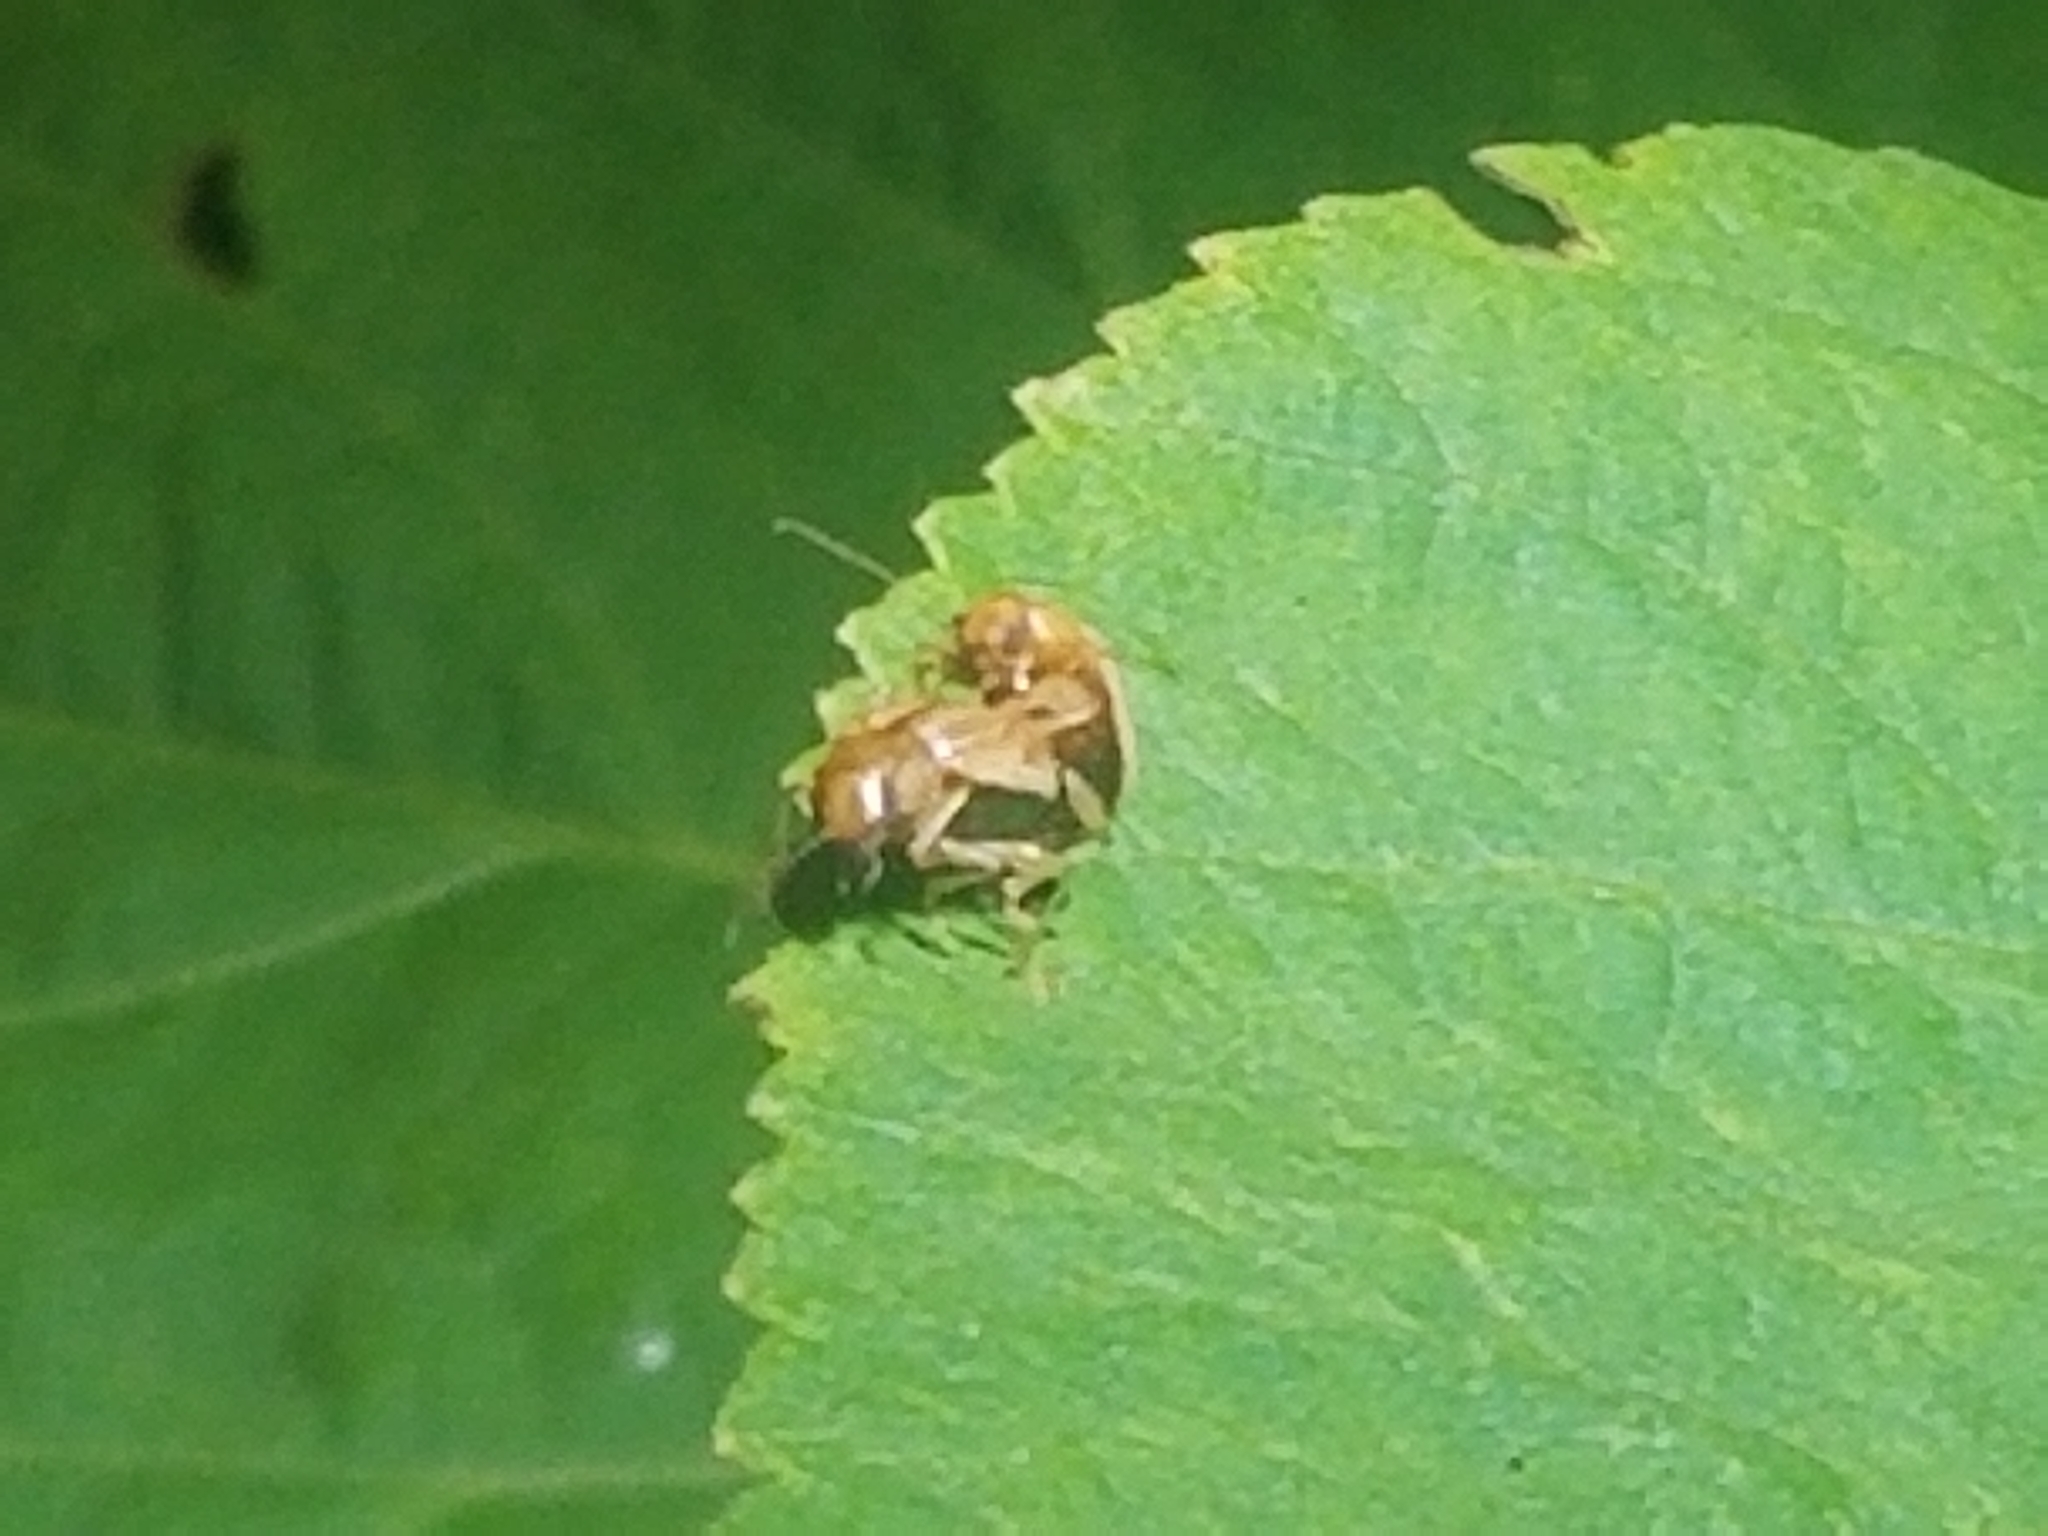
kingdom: Animalia
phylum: Arthropoda
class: Insecta
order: Coleoptera
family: Chrysomelidae
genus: Colaspis
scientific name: Colaspis brunnea
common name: Grape colaspis
